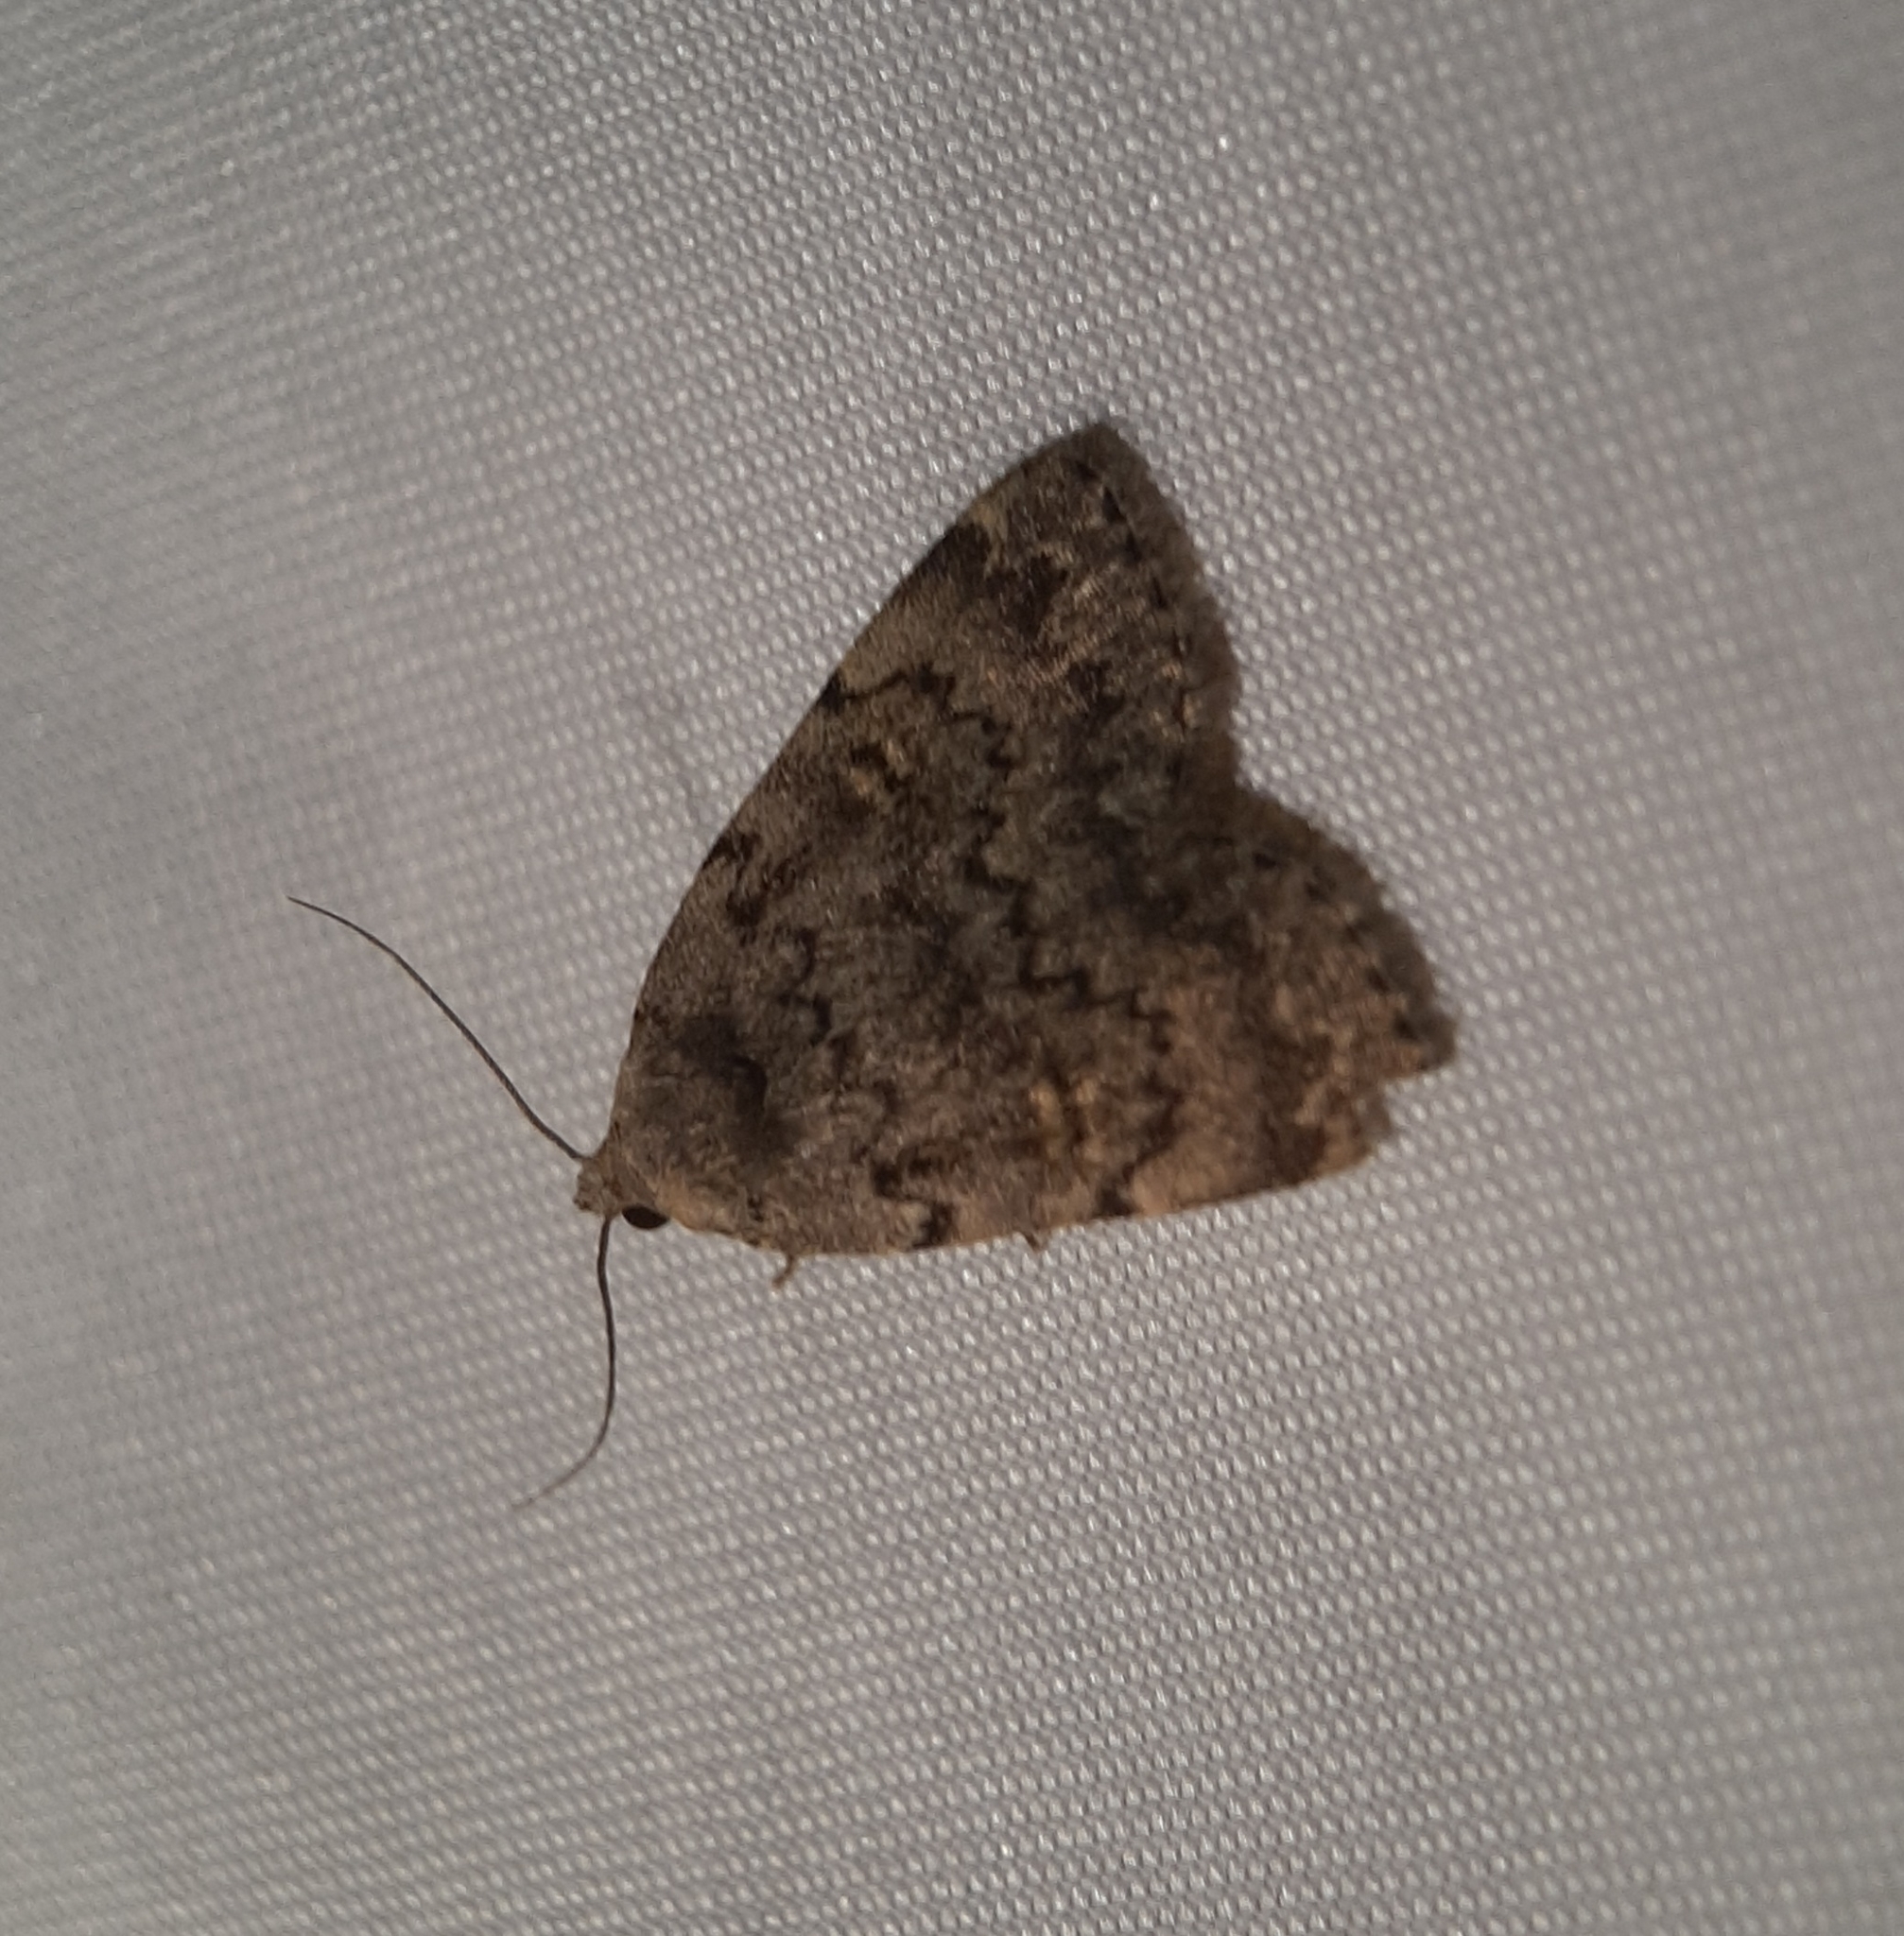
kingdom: Animalia
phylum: Arthropoda
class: Insecta
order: Lepidoptera
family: Erebidae
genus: Idia
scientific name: Idia aemula
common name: Common idia moth
